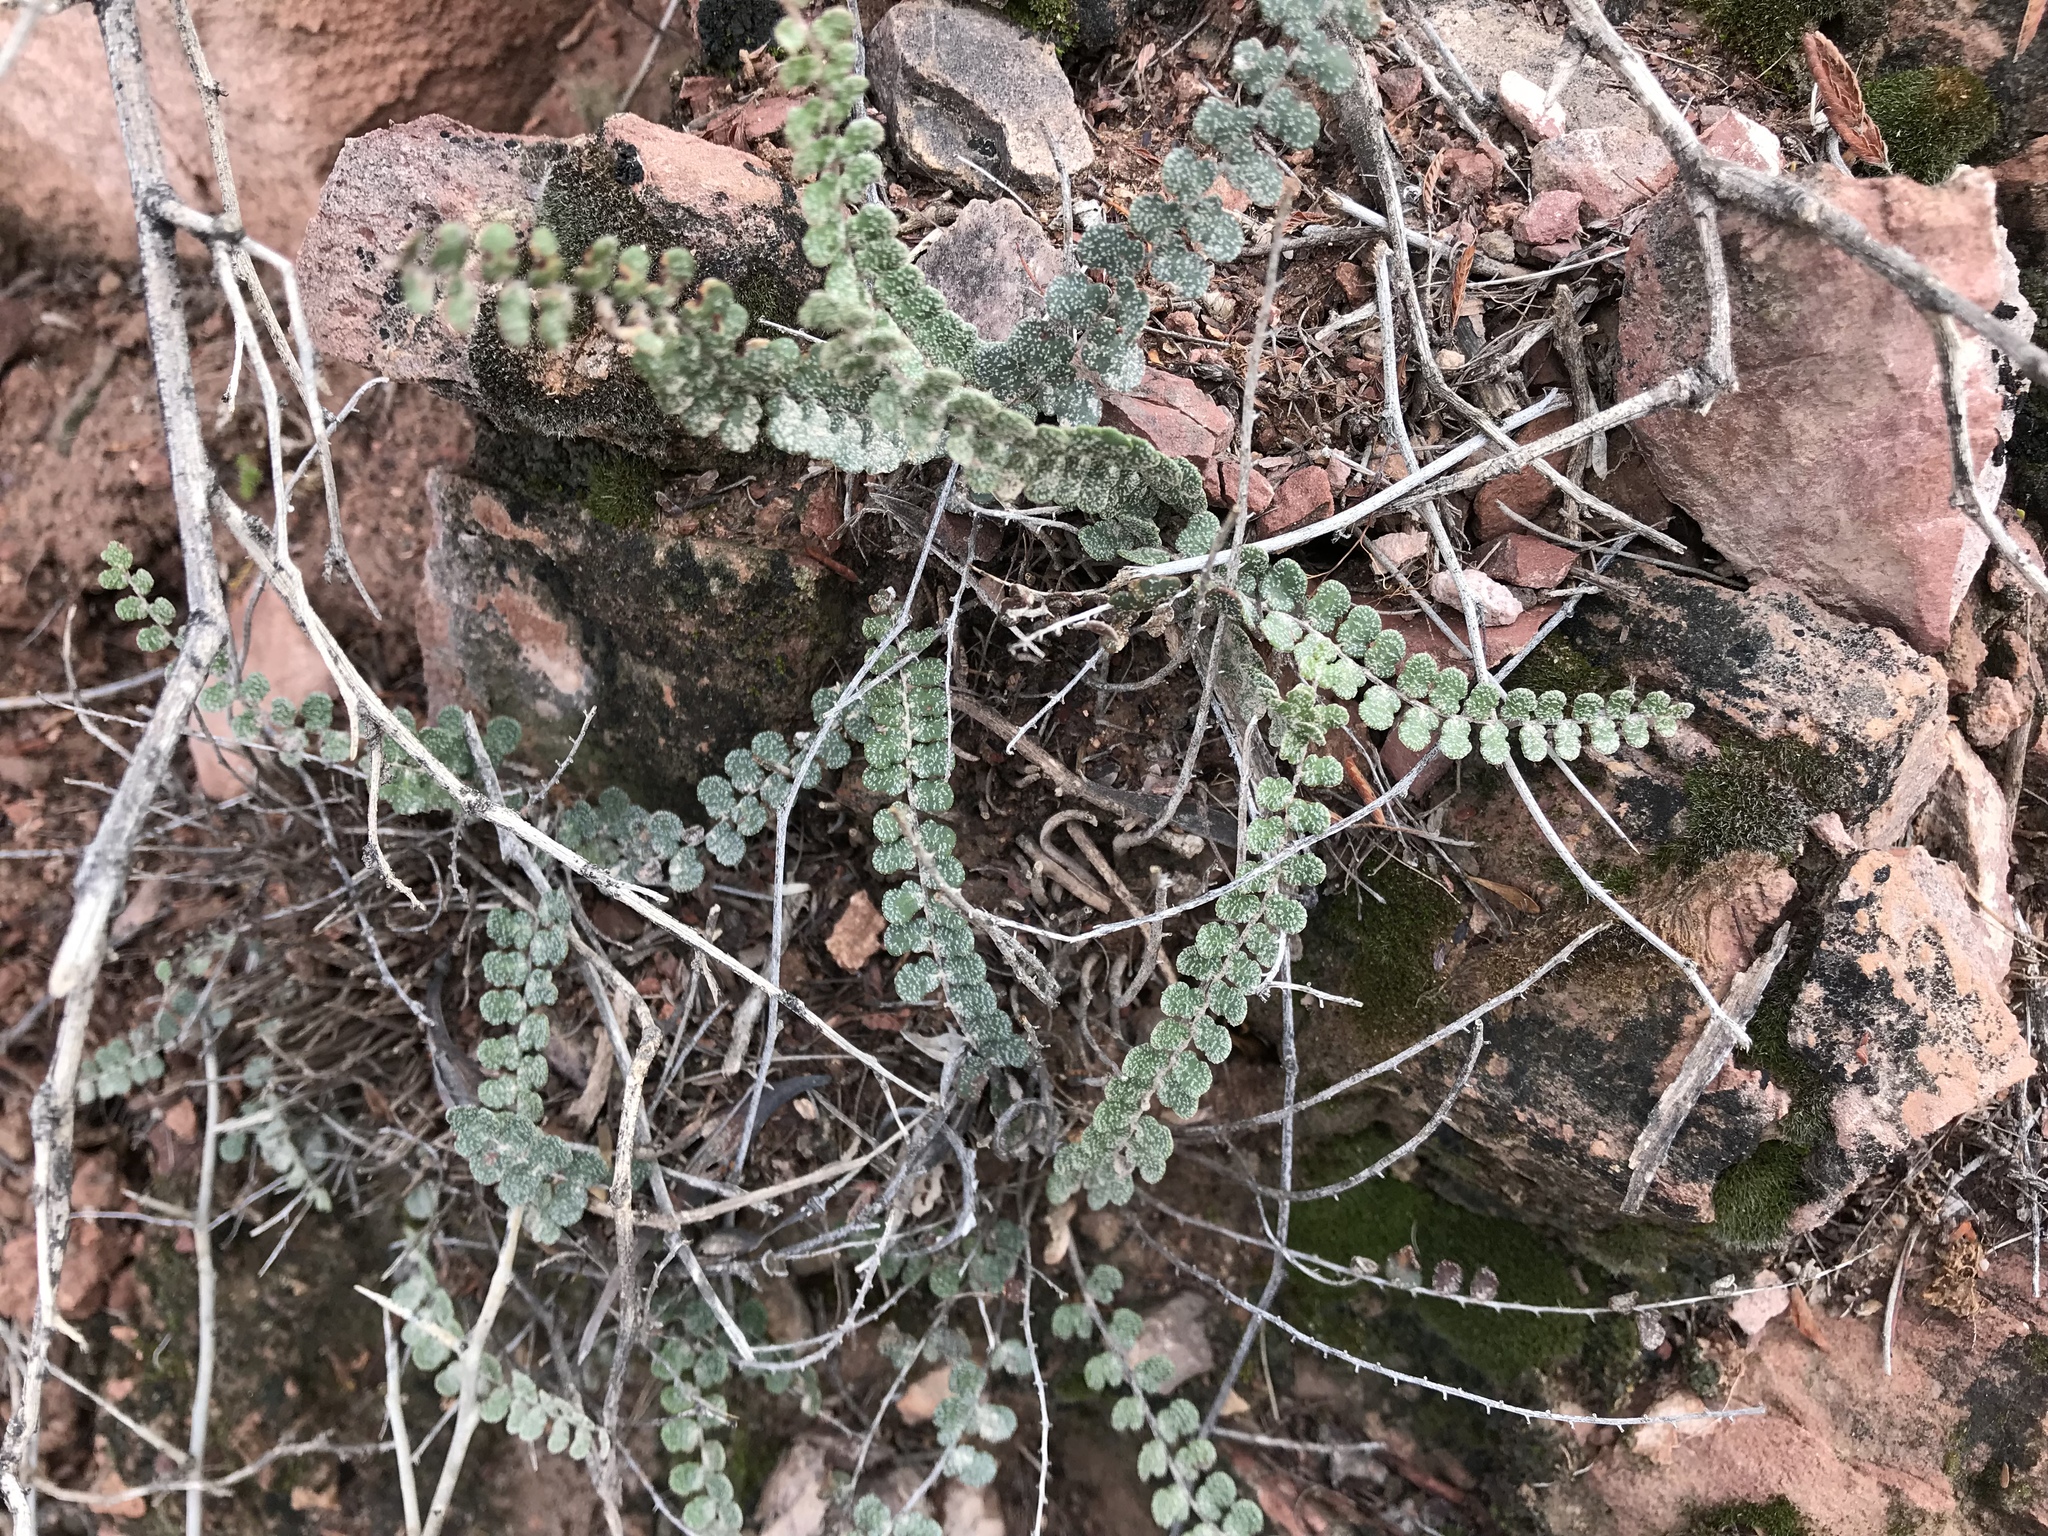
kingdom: Plantae
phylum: Tracheophyta
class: Polypodiopsida
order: Polypodiales
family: Pteridaceae
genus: Astrolepis
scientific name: Astrolepis cochisensis
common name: Scaly cloak fern
